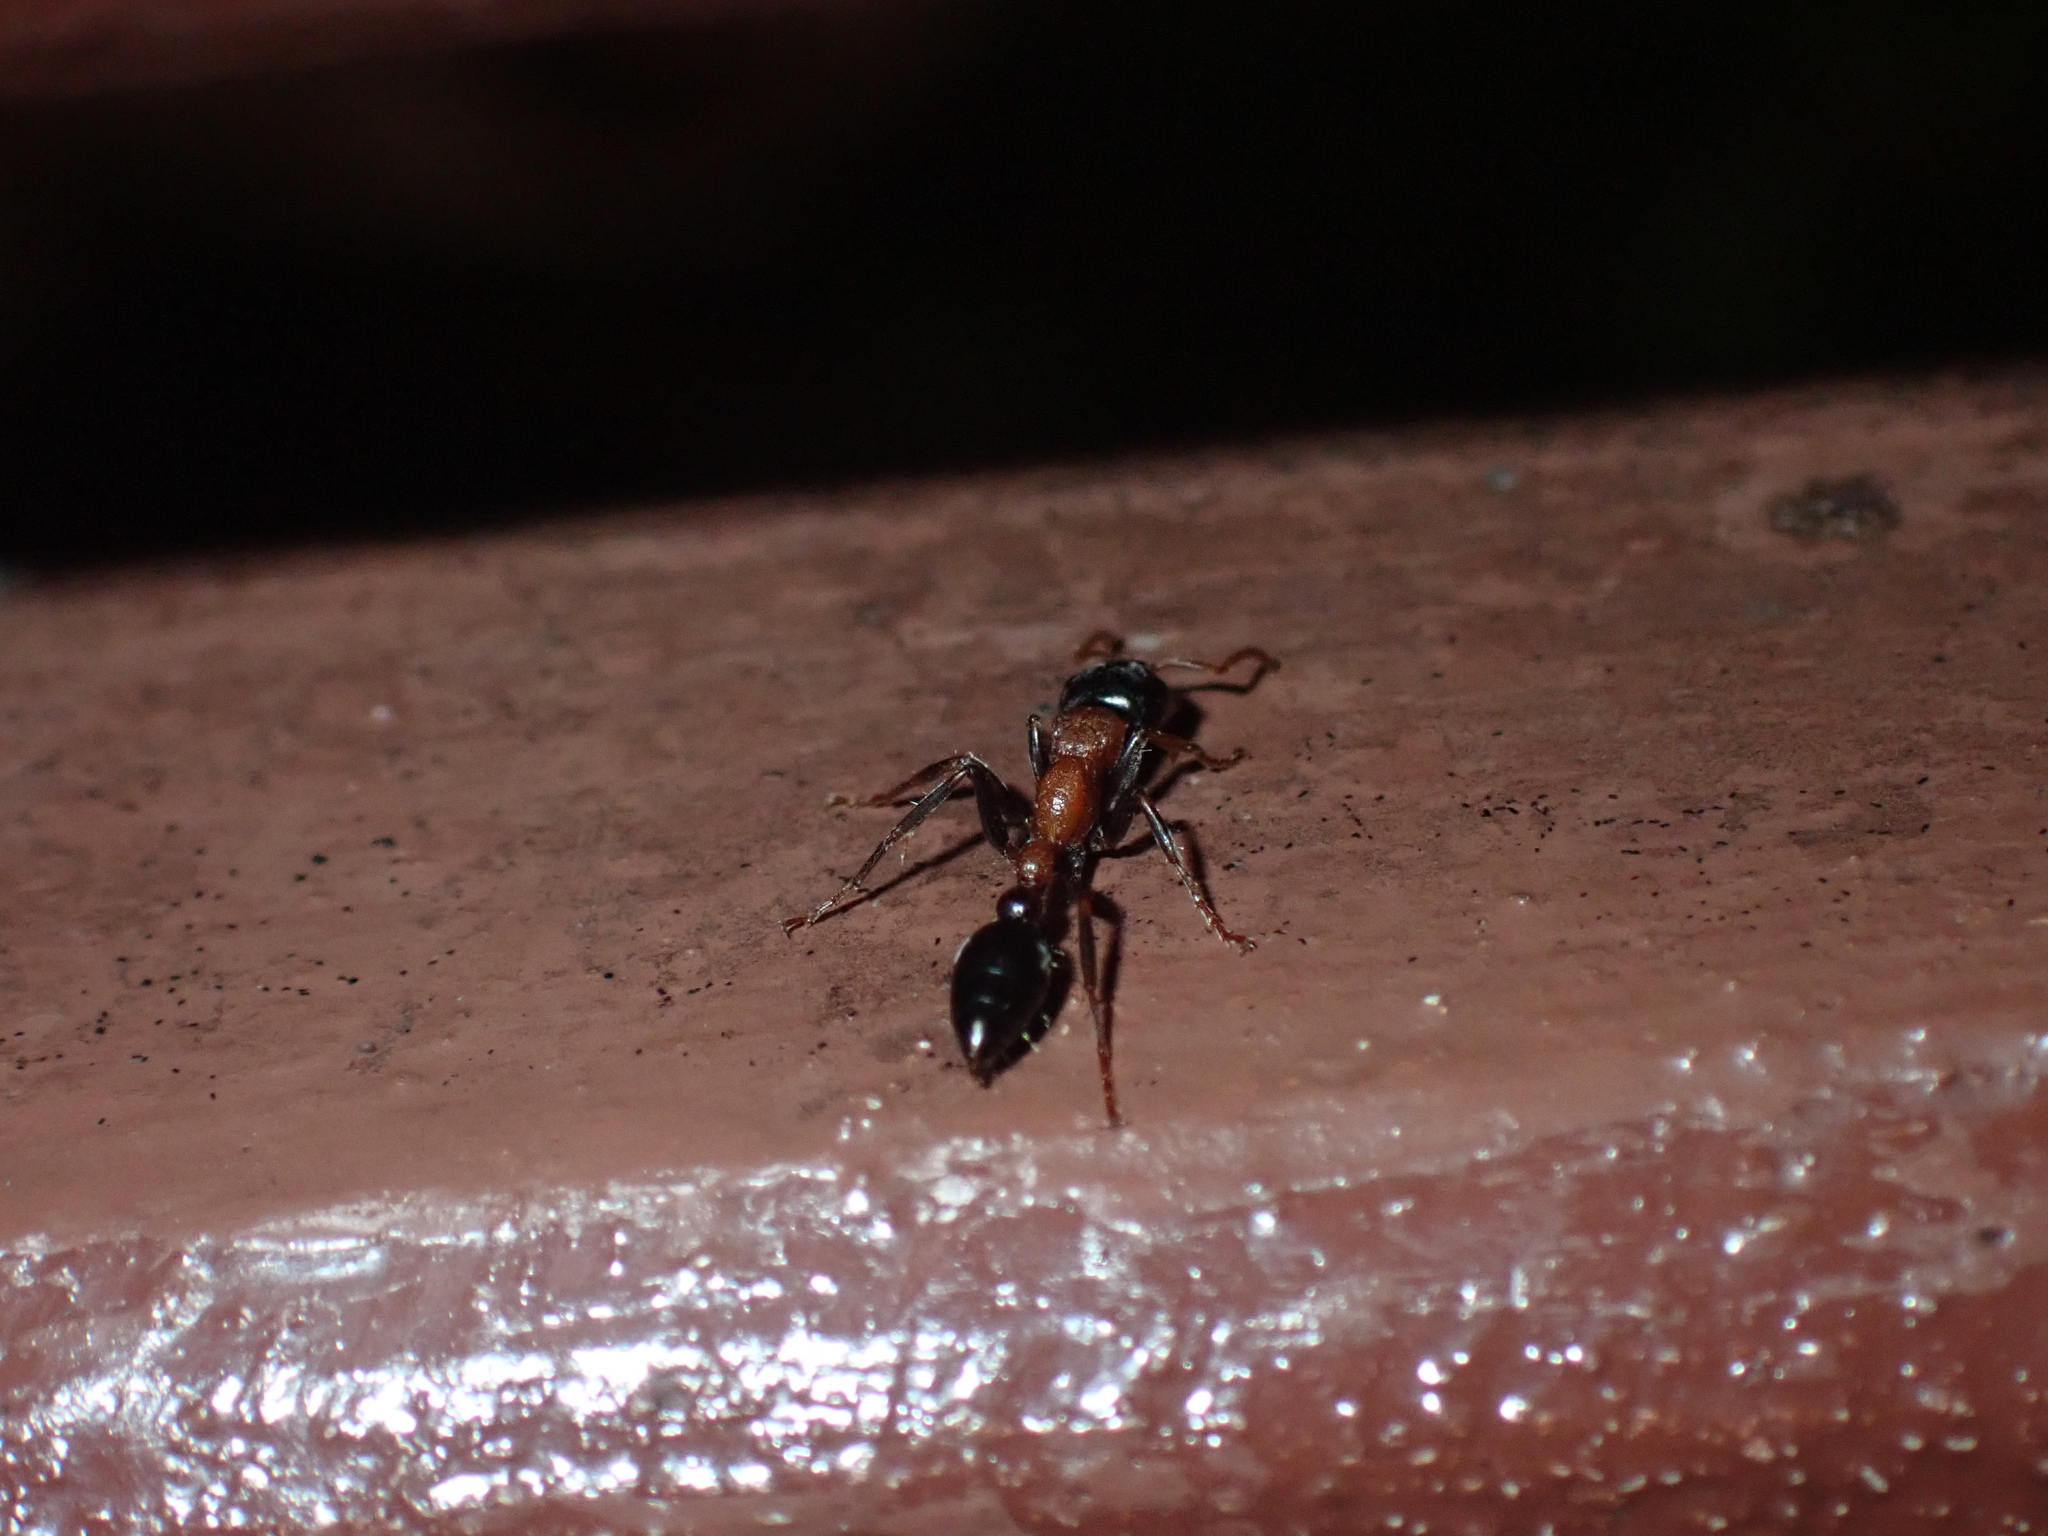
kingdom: Animalia
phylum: Arthropoda
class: Insecta
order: Hymenoptera
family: Formicidae
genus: Tetraponera
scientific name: Tetraponera rufonigra
